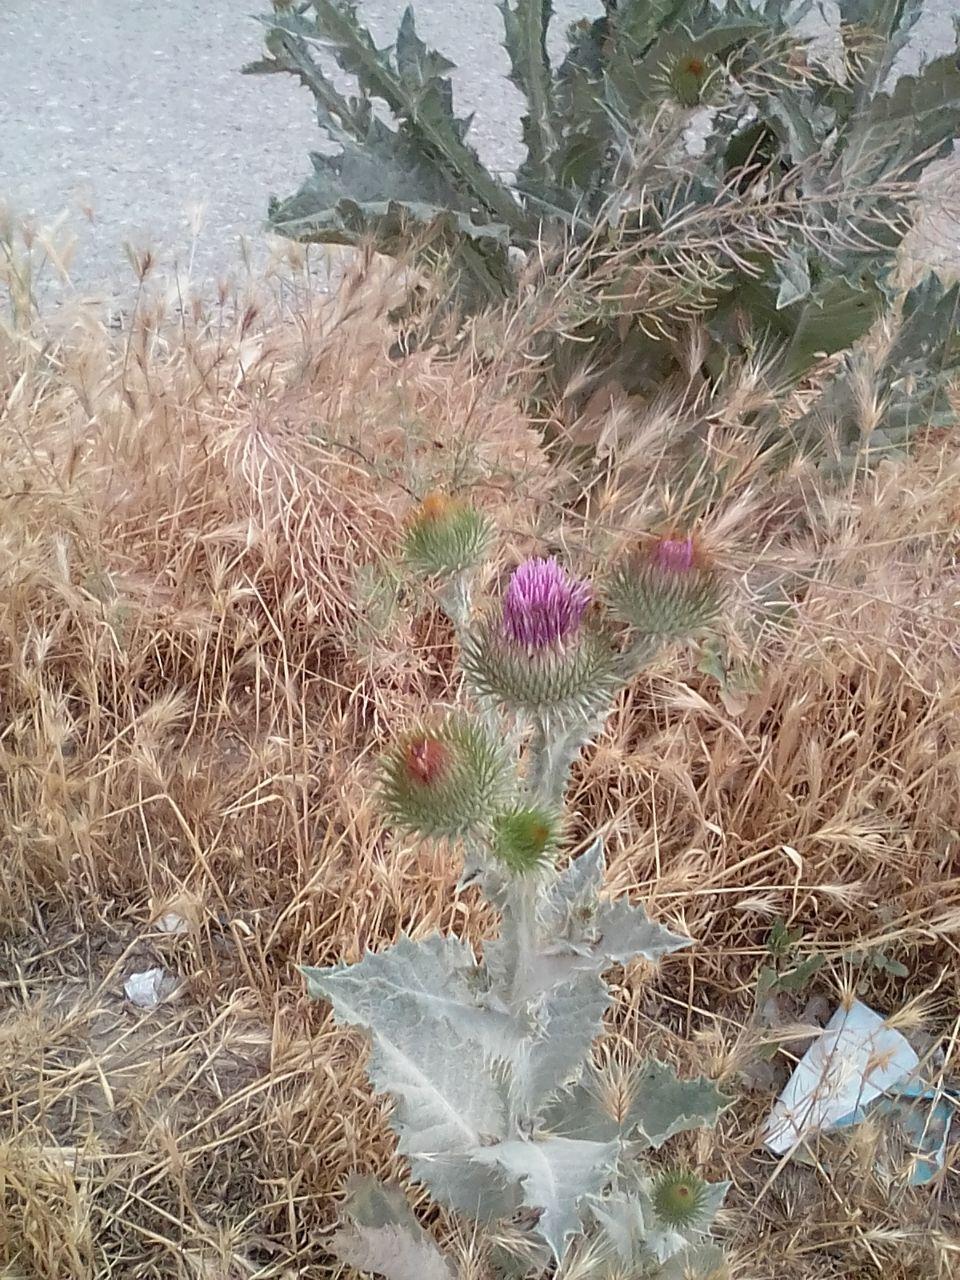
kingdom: Plantae
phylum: Tracheophyta
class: Magnoliopsida
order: Asterales
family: Asteraceae
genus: Onopordum
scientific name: Onopordum acanthium
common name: Scotch thistle
